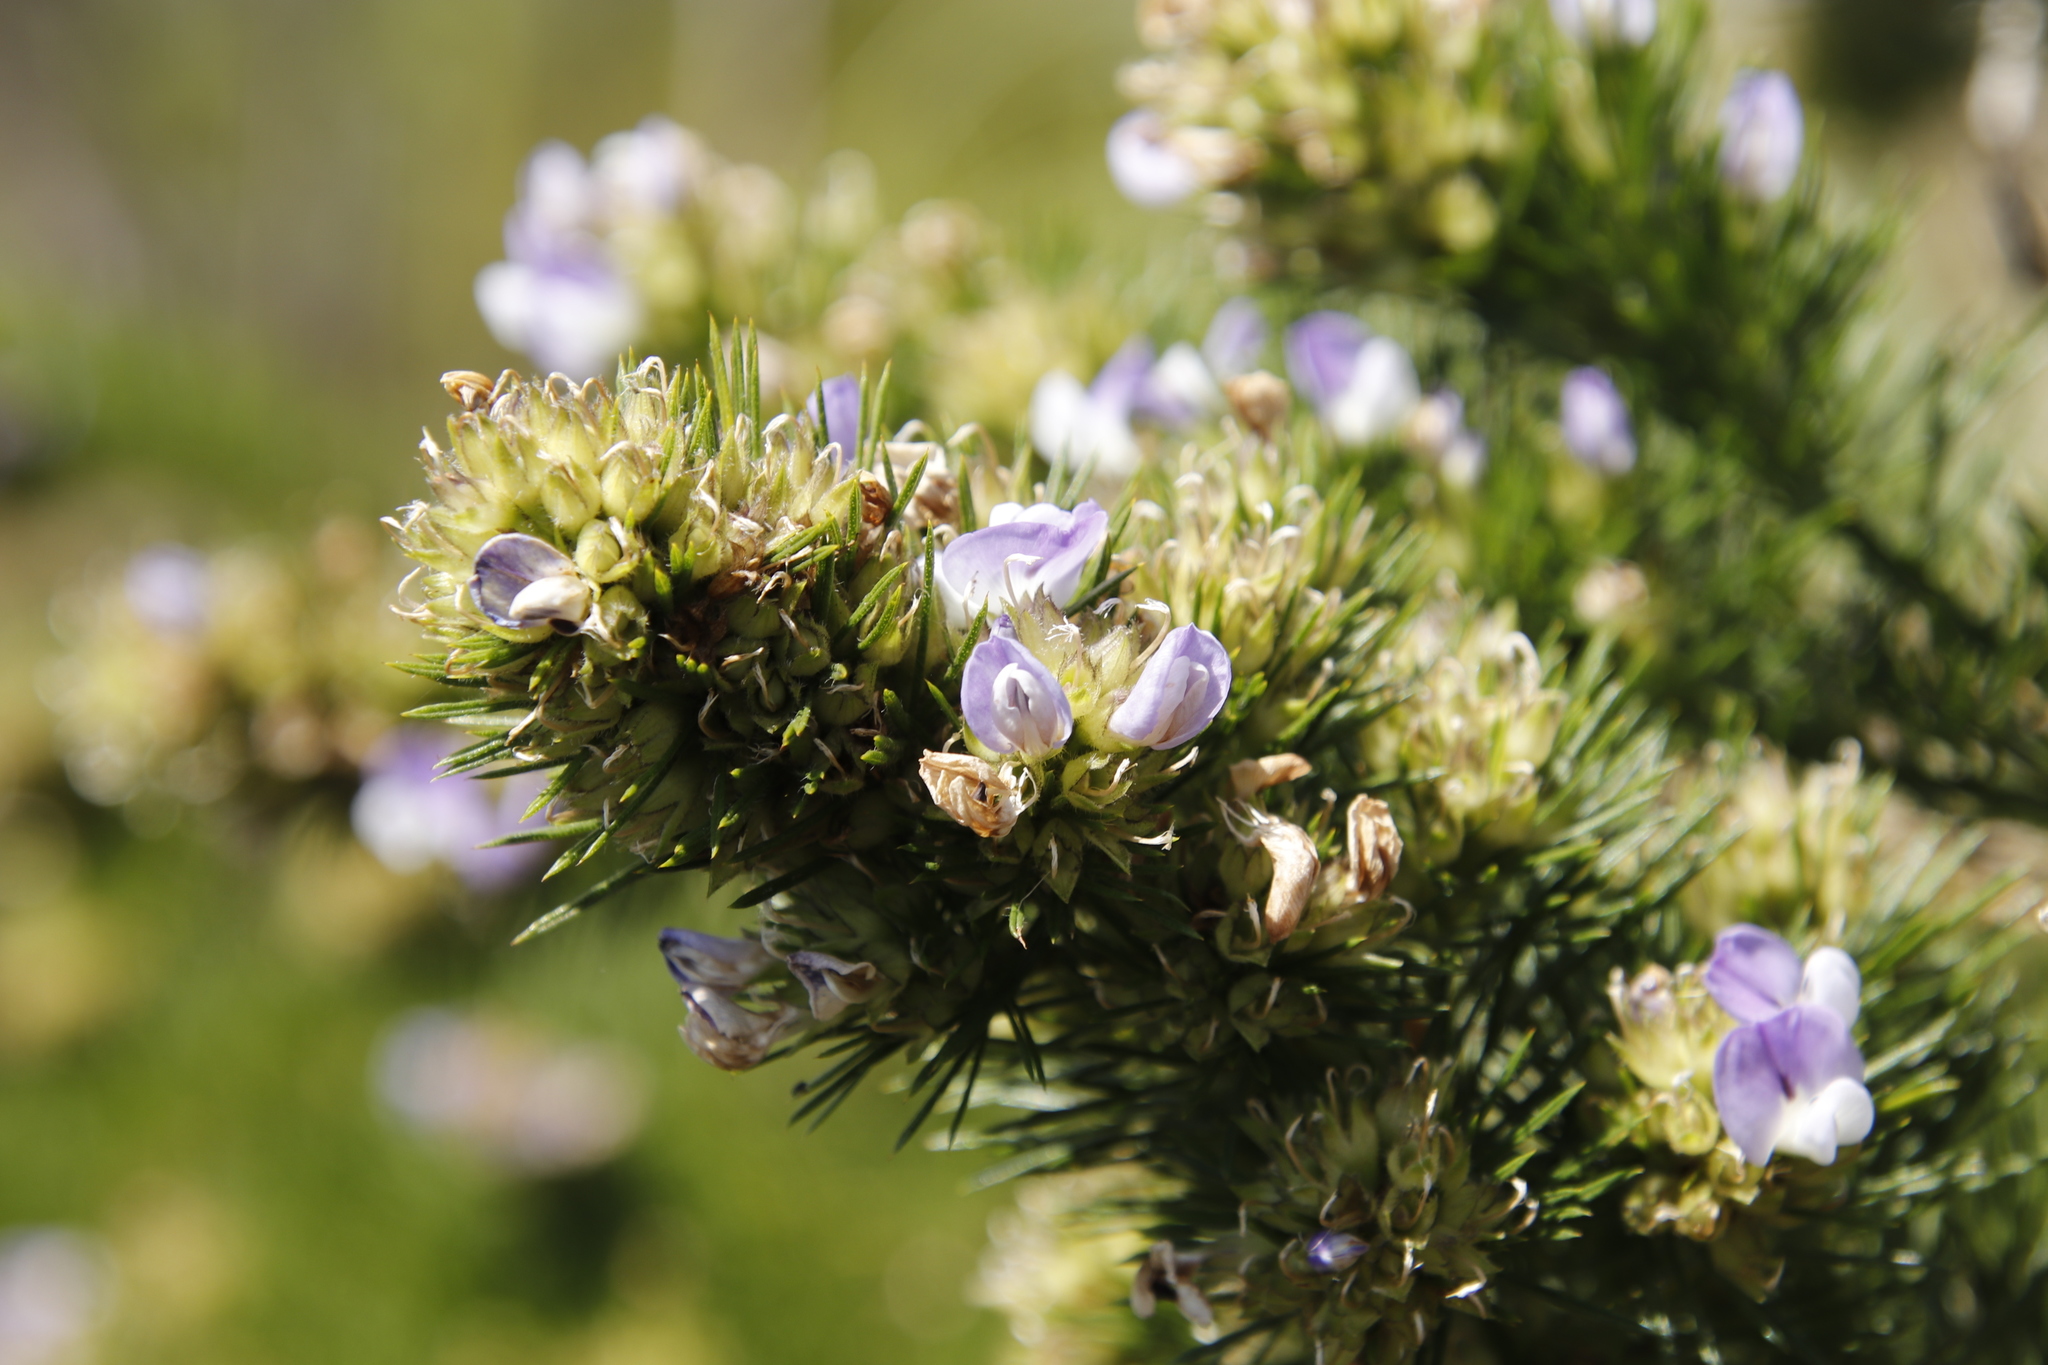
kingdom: Plantae
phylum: Tracheophyta
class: Magnoliopsida
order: Fabales
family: Fabaceae
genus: Psoralea
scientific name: Psoralea pinnata
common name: African scurfpea
